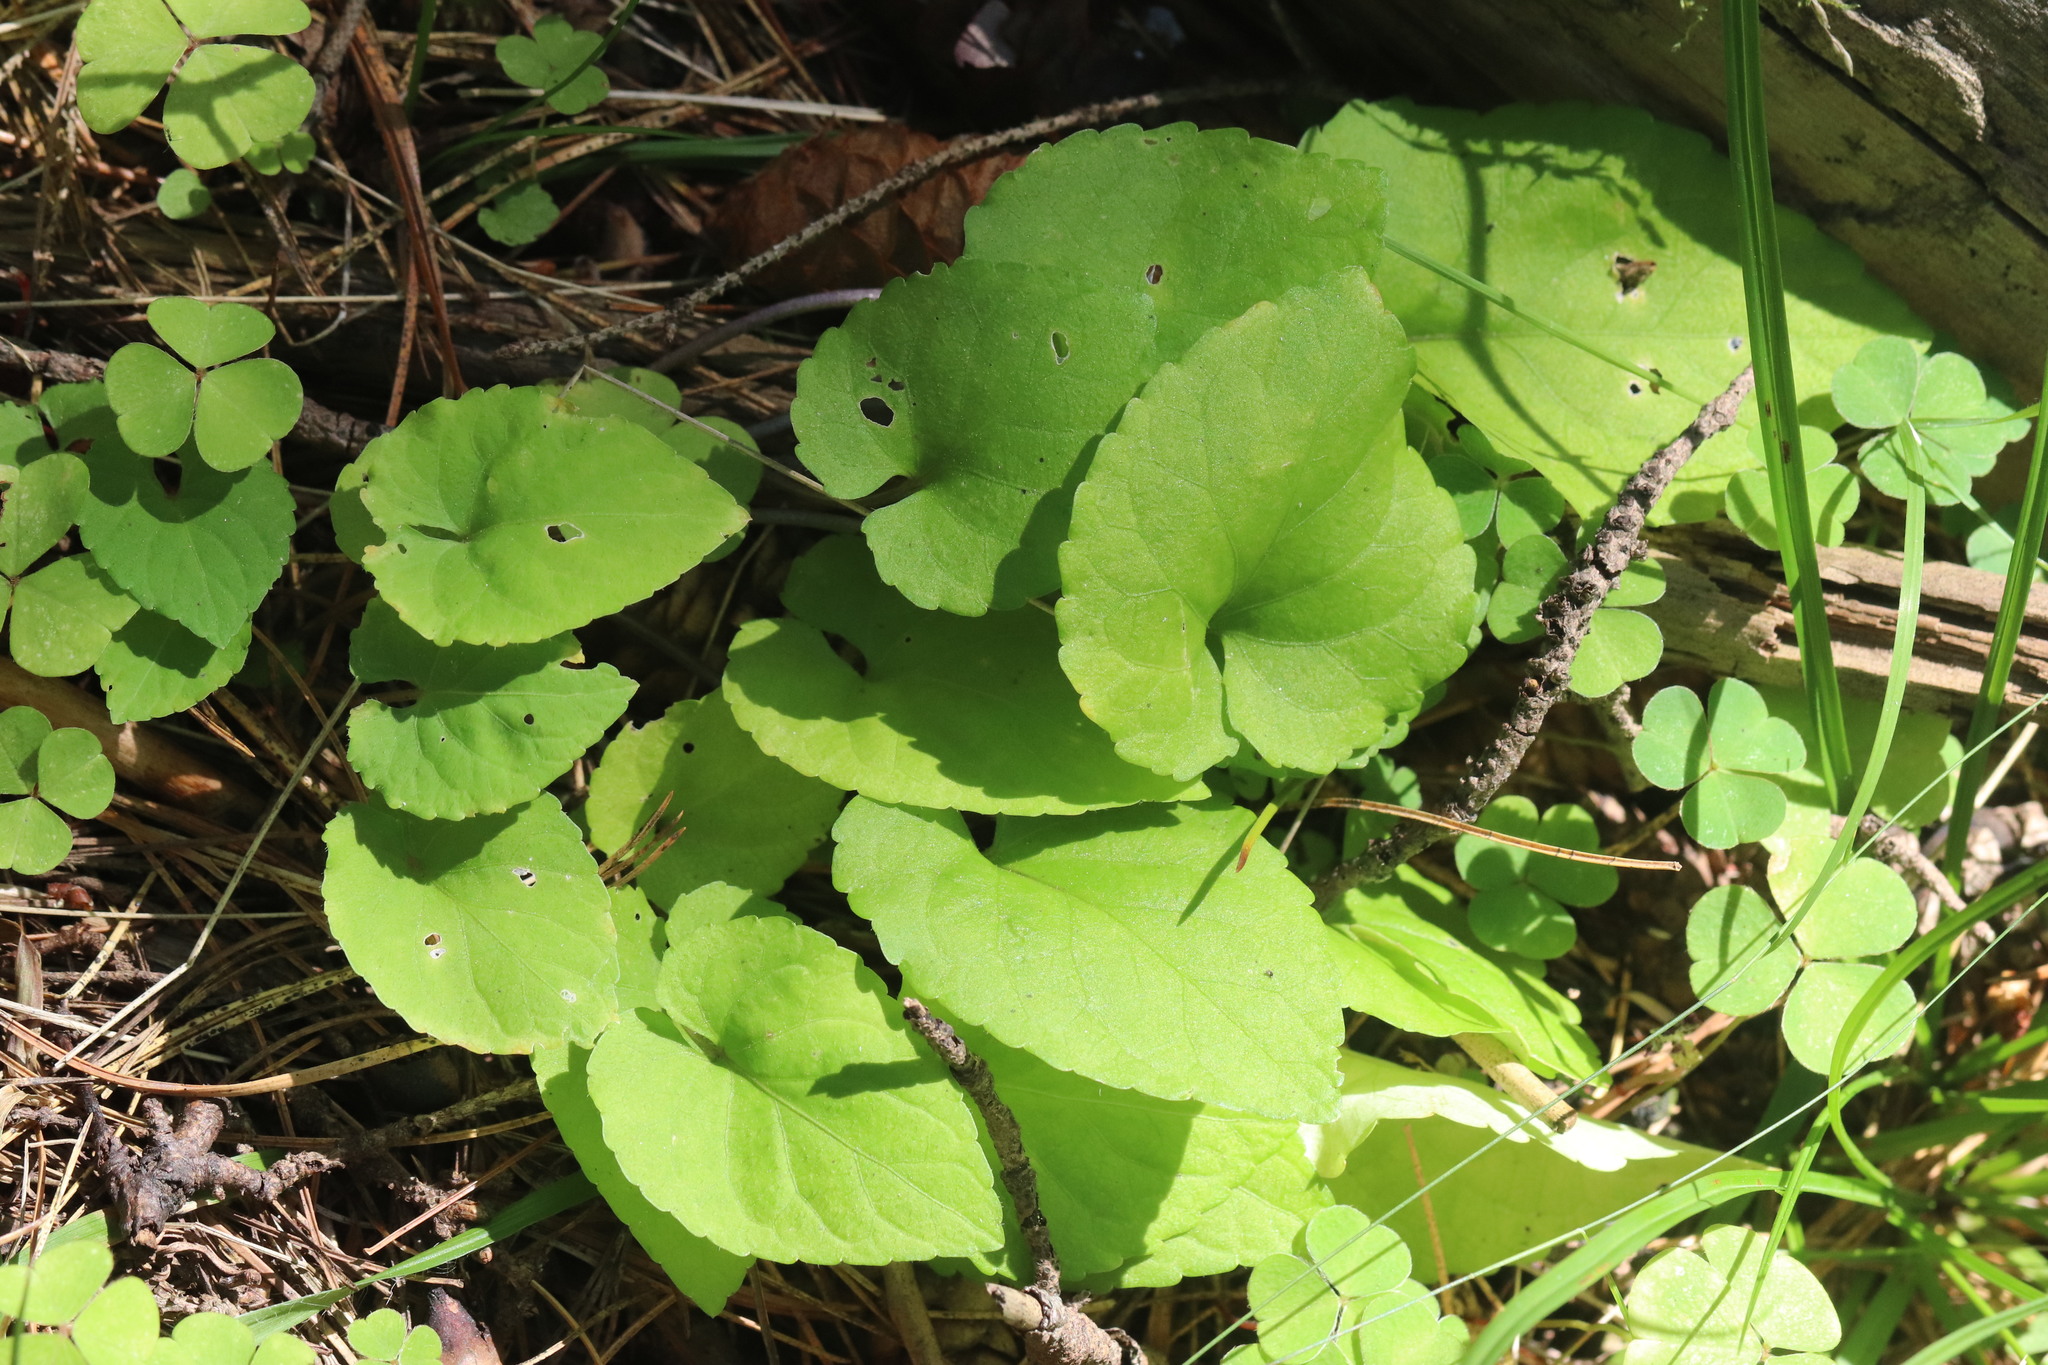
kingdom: Plantae
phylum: Tracheophyta
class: Magnoliopsida
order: Malpighiales
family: Violaceae
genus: Viola
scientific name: Viola selkirkii
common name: Selkirk's violet
